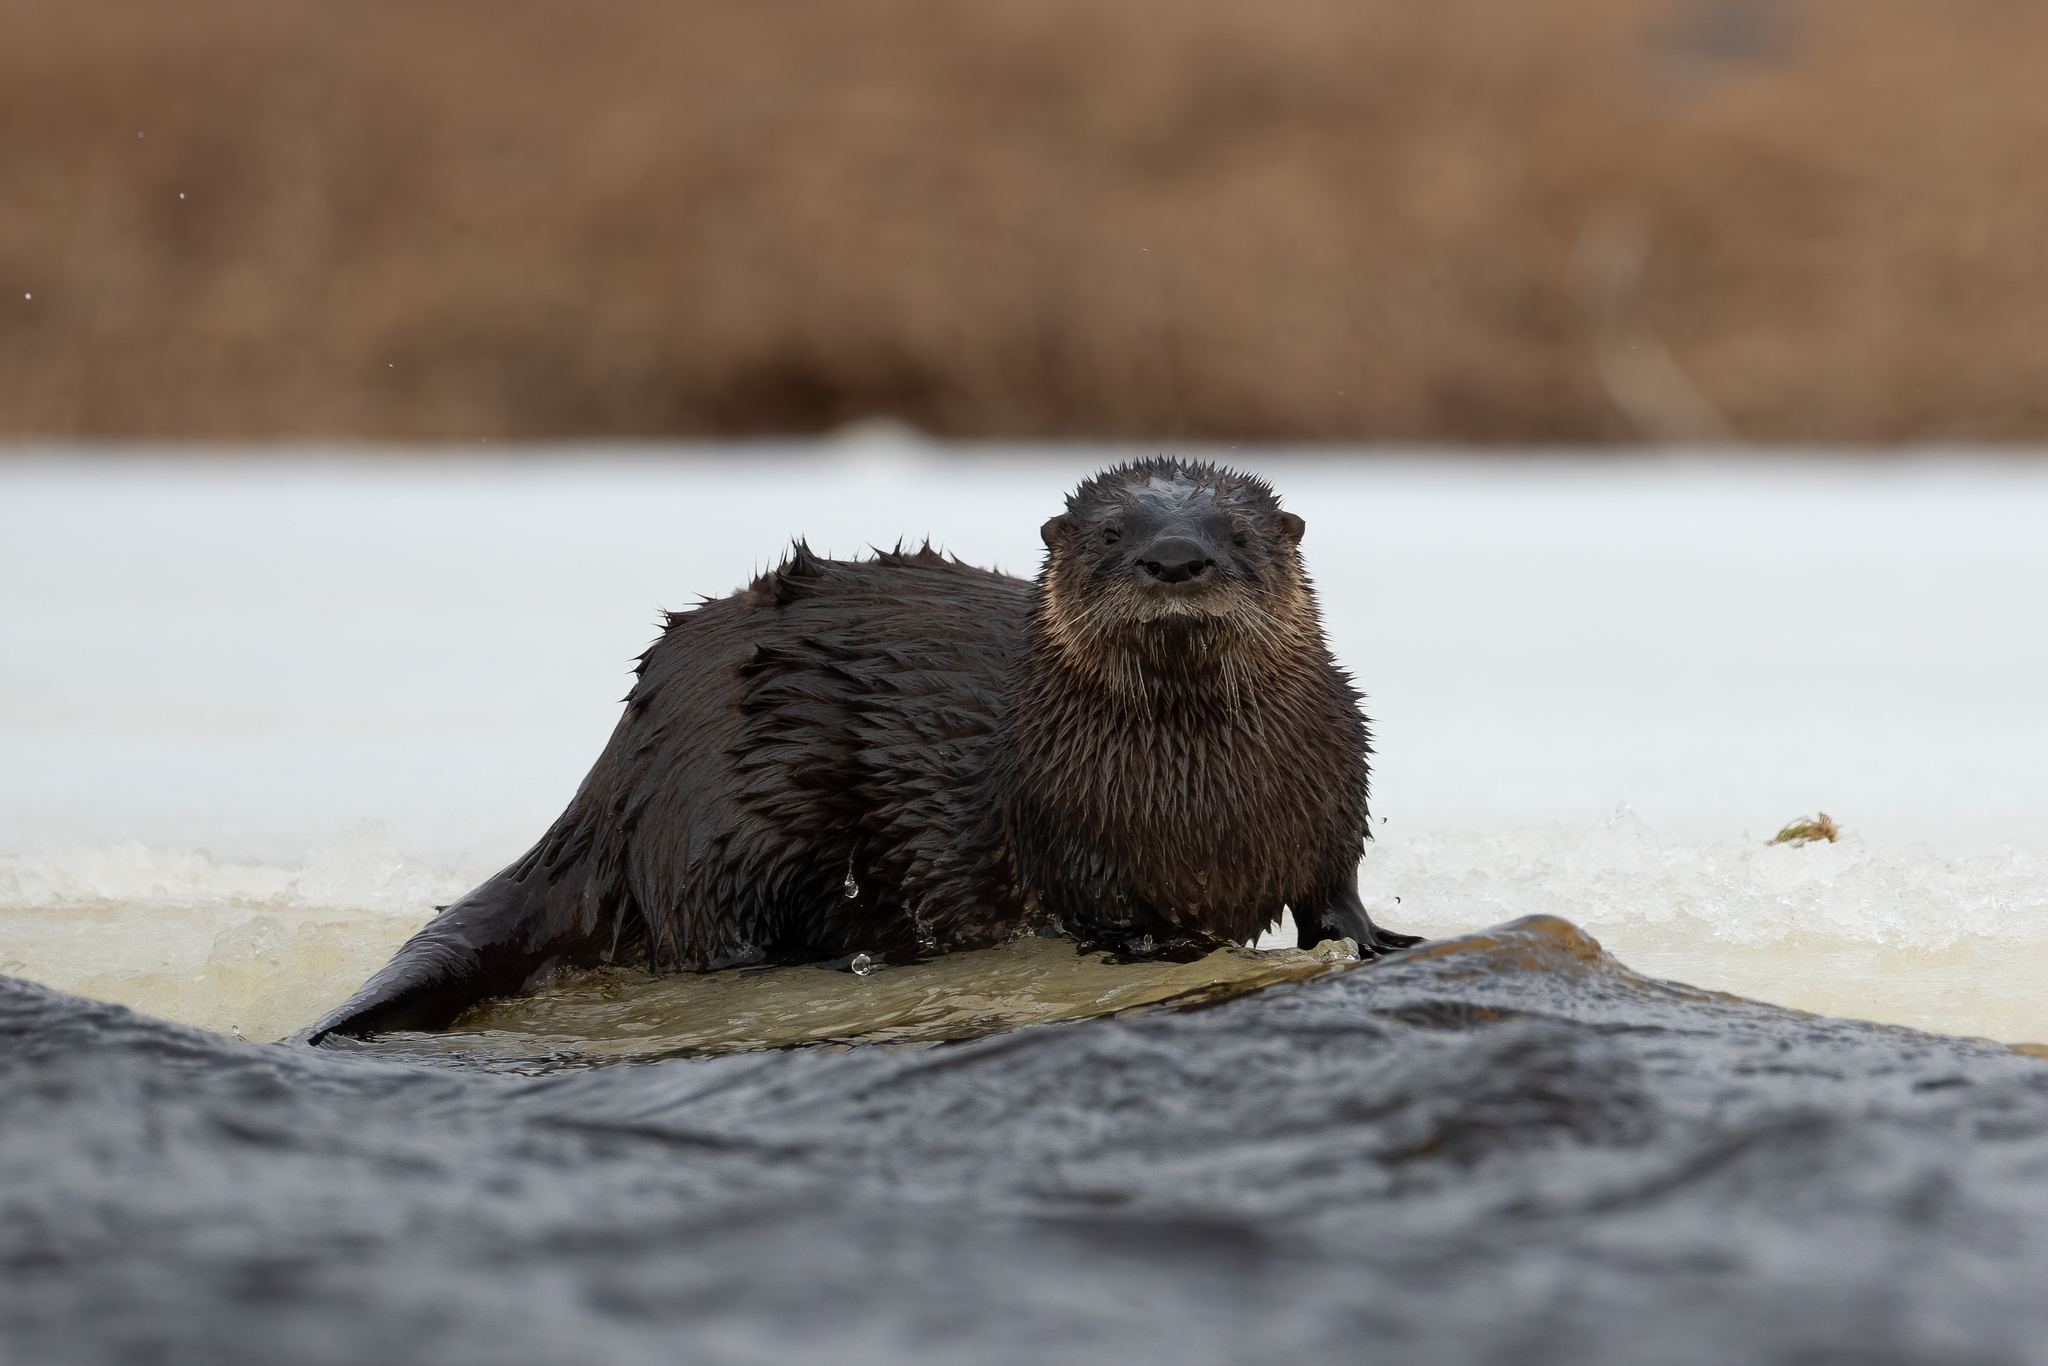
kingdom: Animalia
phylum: Chordata
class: Mammalia
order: Carnivora
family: Mustelidae
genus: Lontra
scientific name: Lontra canadensis
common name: North american river otter
